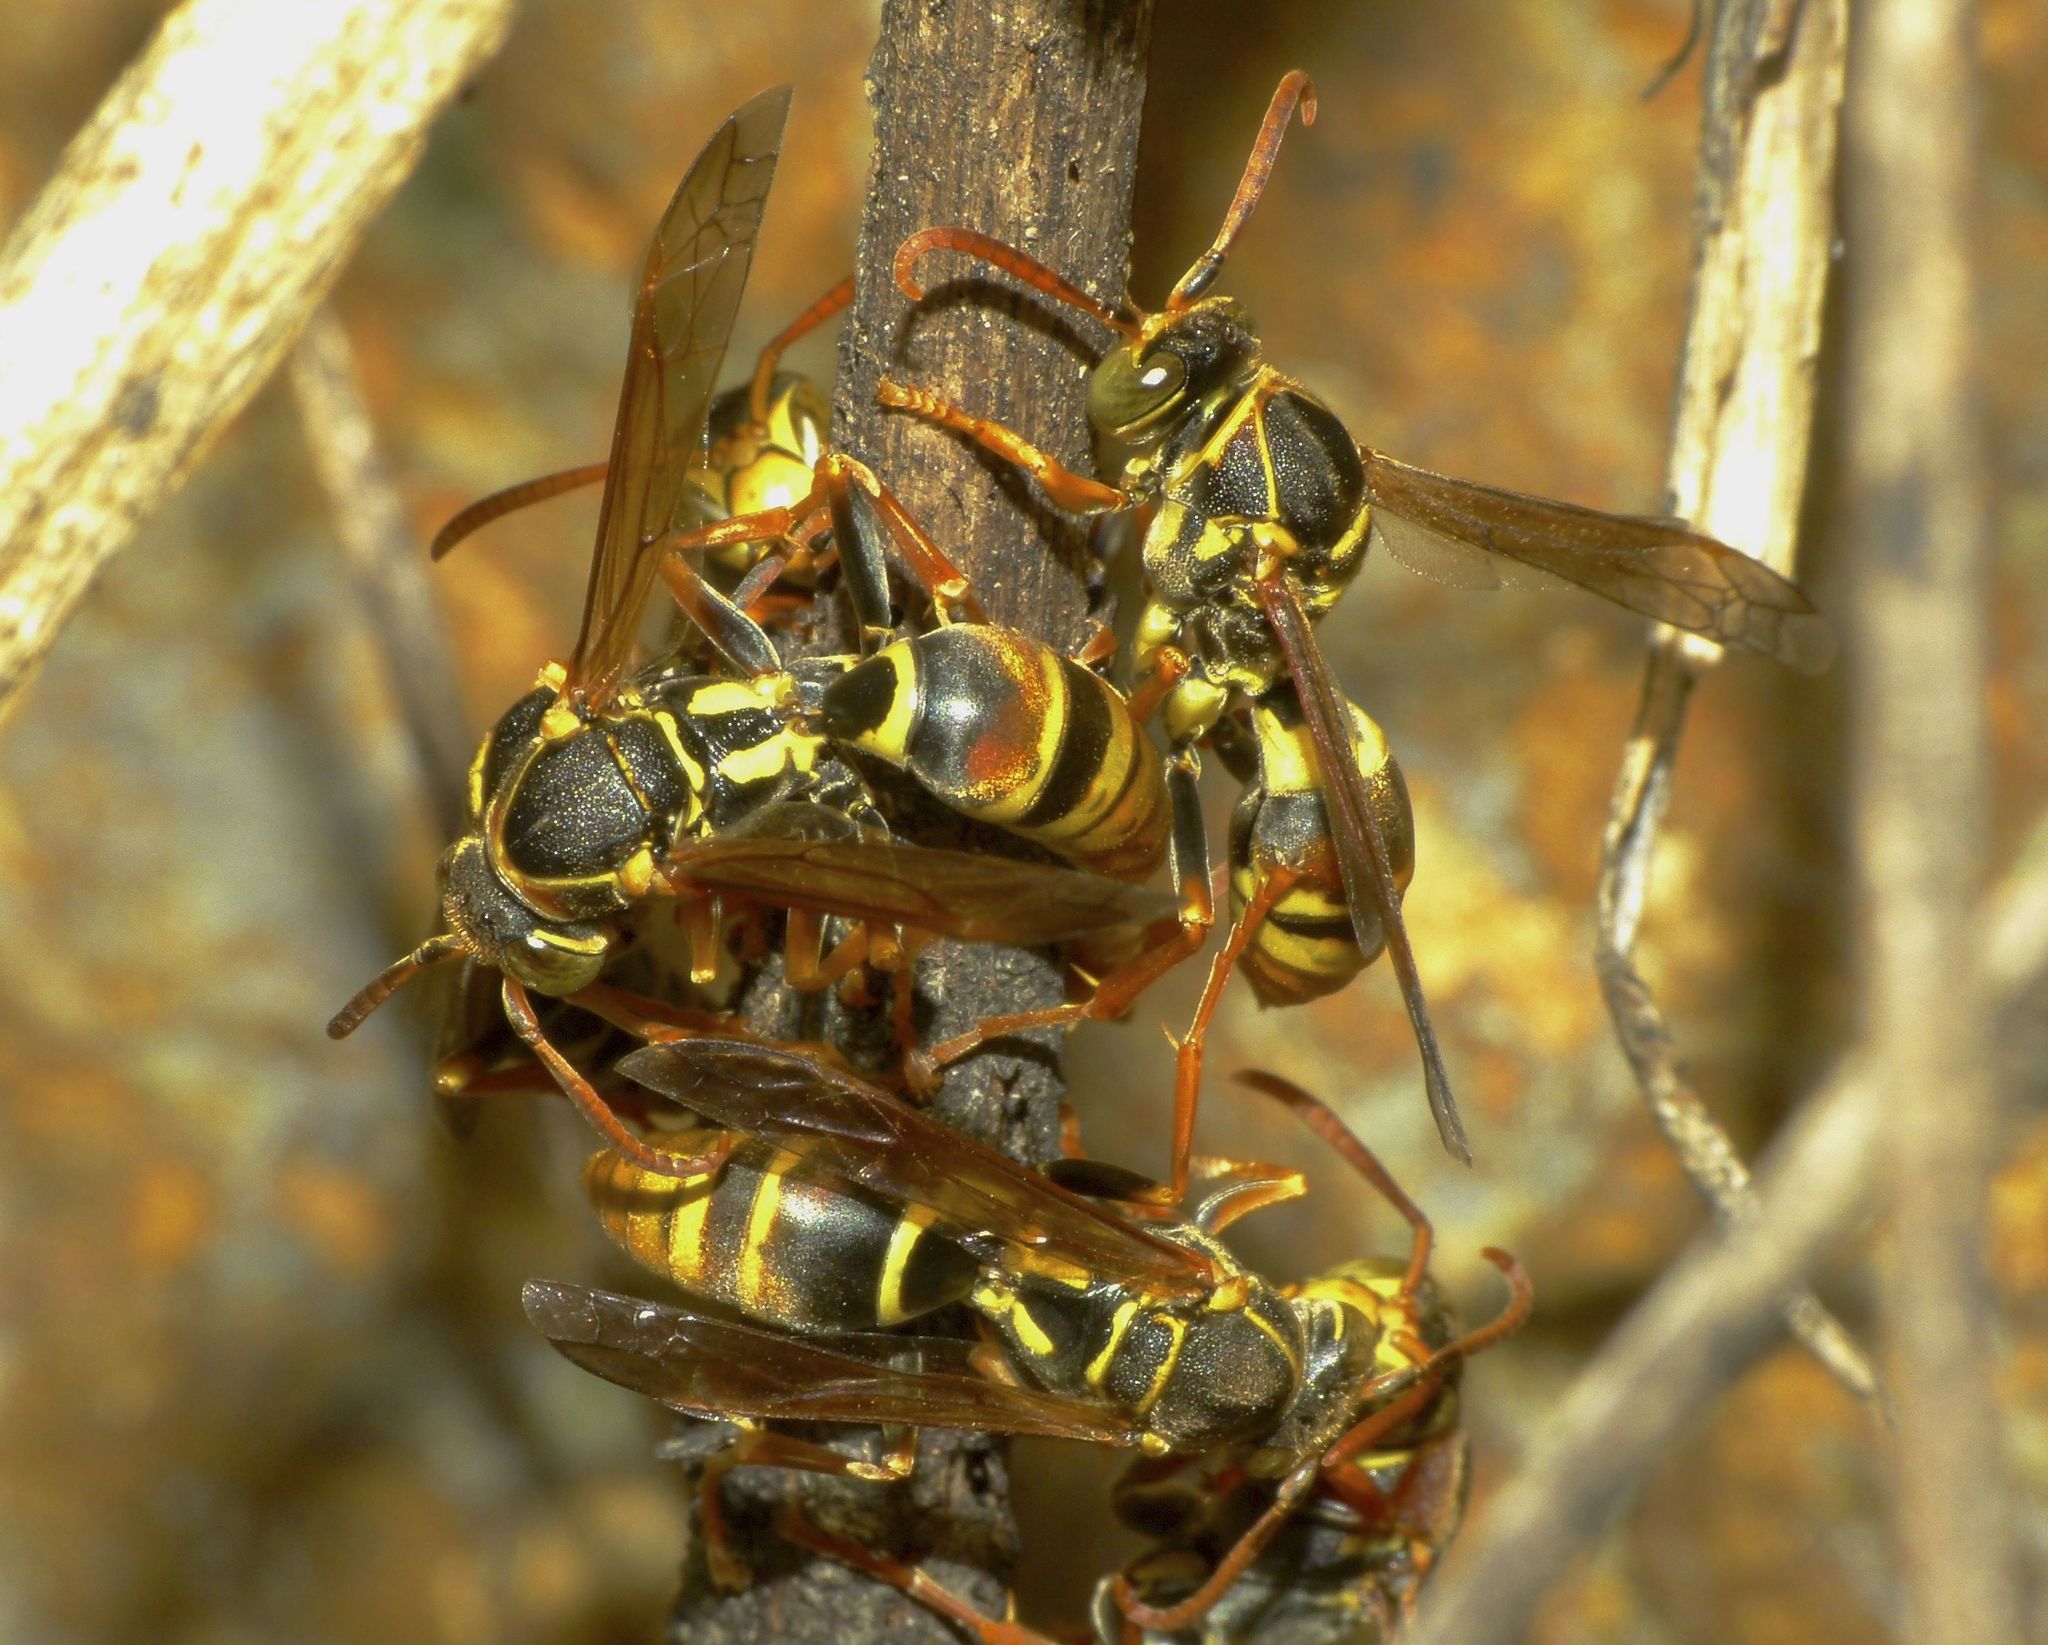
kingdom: Animalia
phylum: Arthropoda
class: Insecta
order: Hymenoptera
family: Eumenidae
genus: Polistes
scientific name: Polistes humilis
